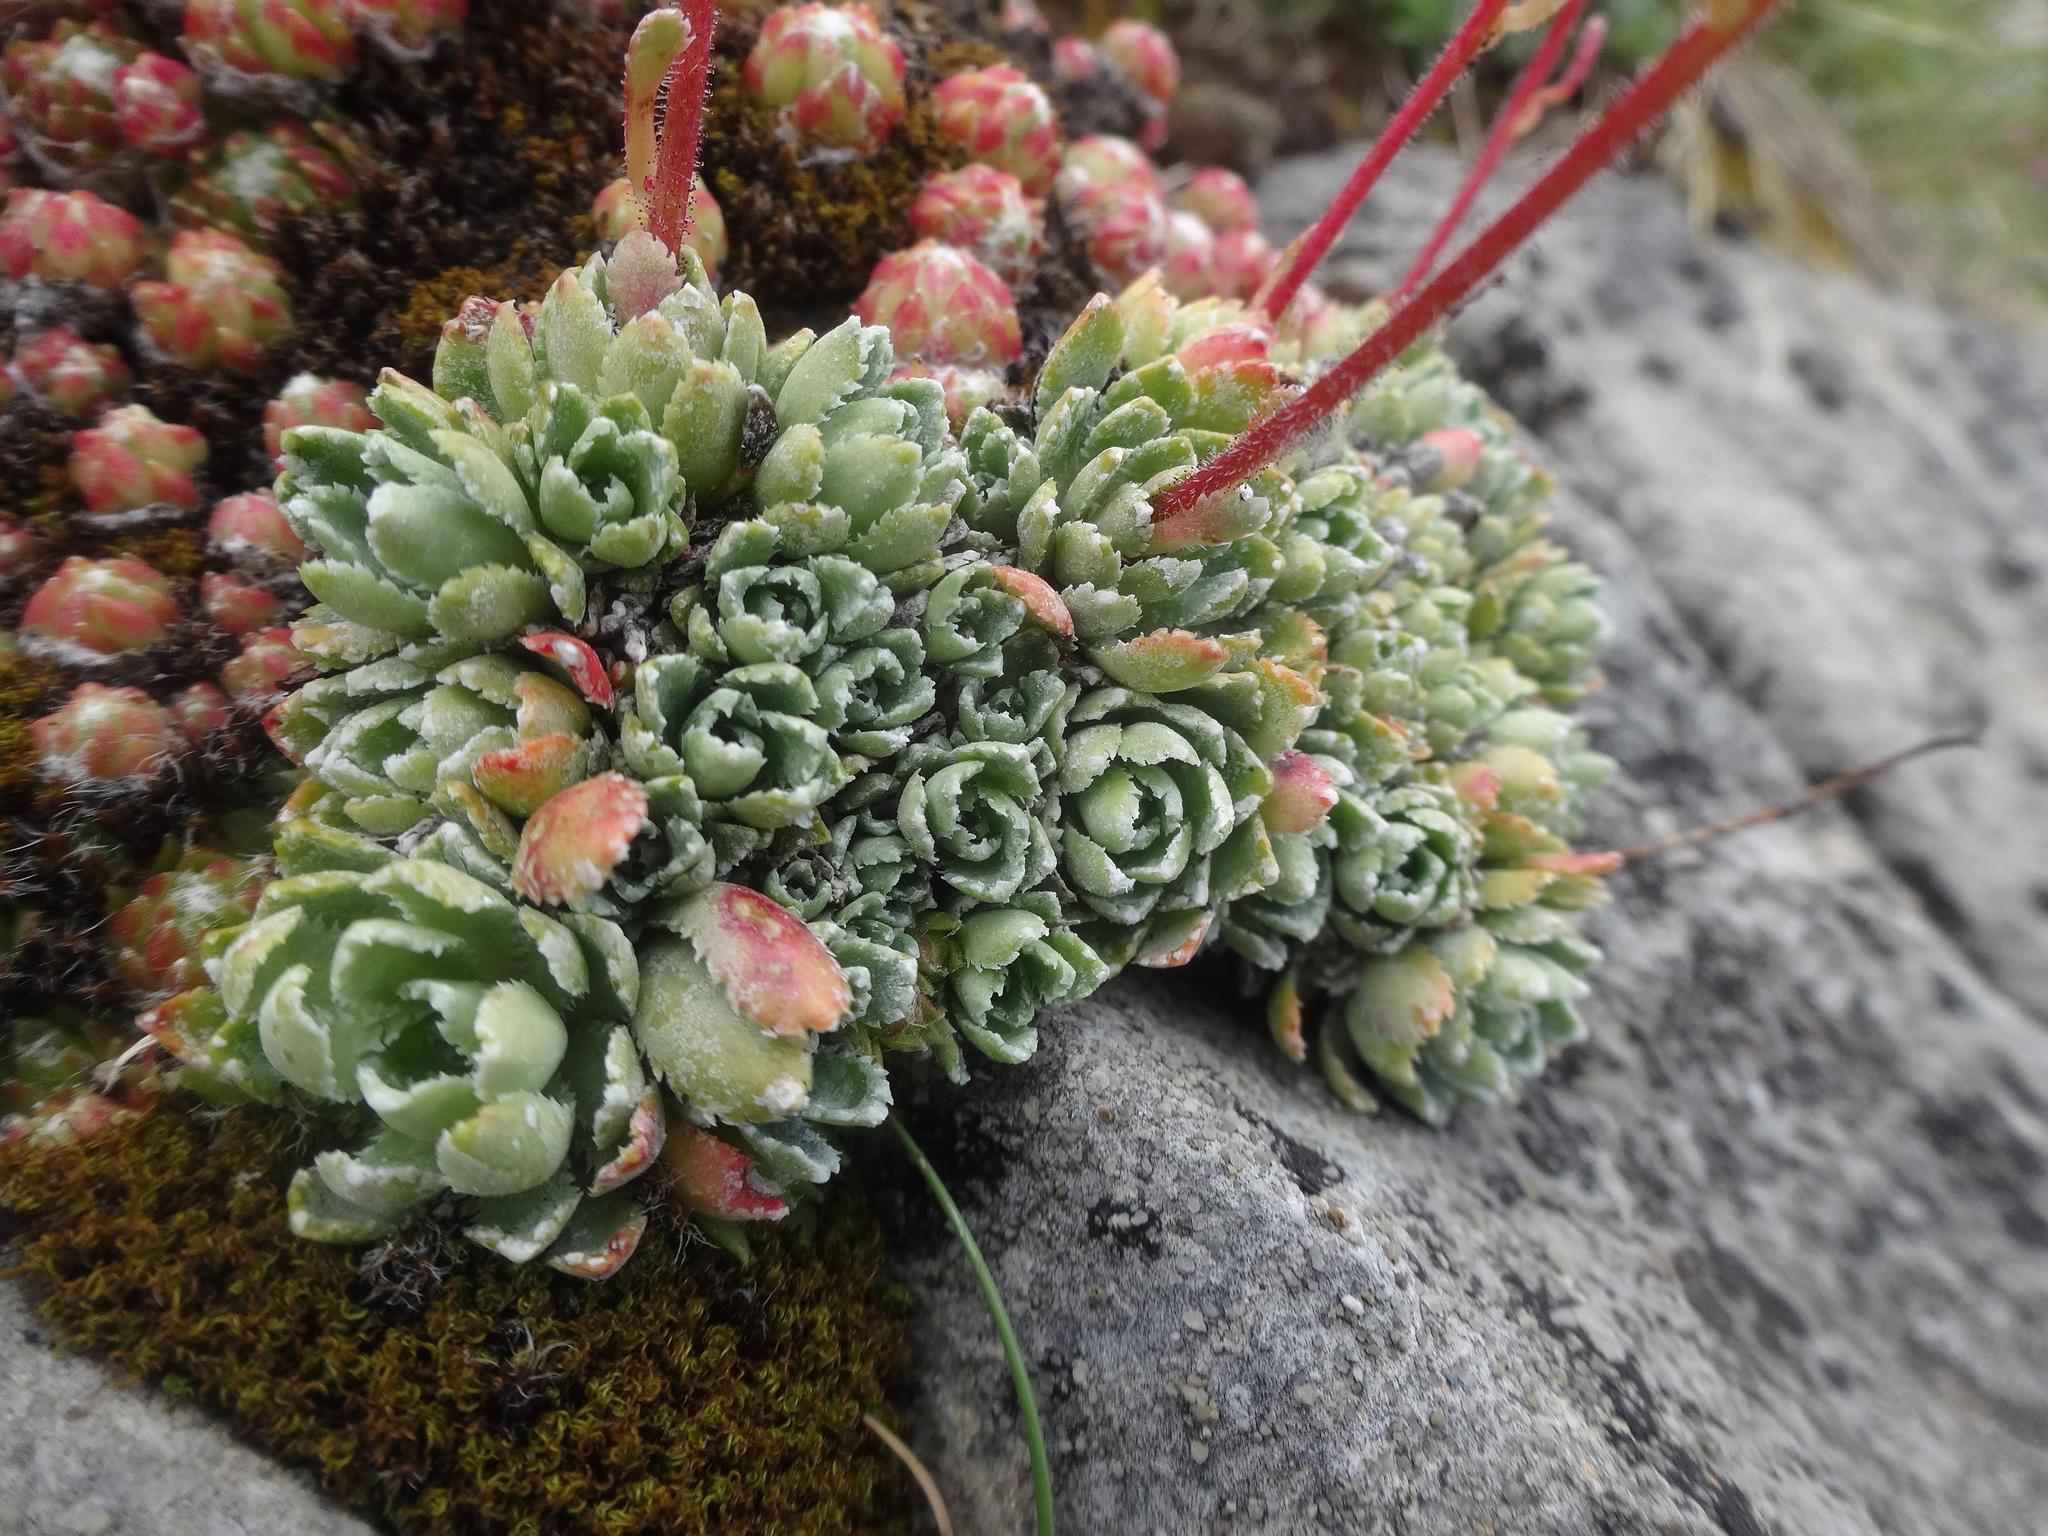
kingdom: Plantae
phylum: Tracheophyta
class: Magnoliopsida
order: Saxifragales
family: Saxifragaceae
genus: Saxifraga
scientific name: Saxifraga paniculata
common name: Livelong saxifrage
